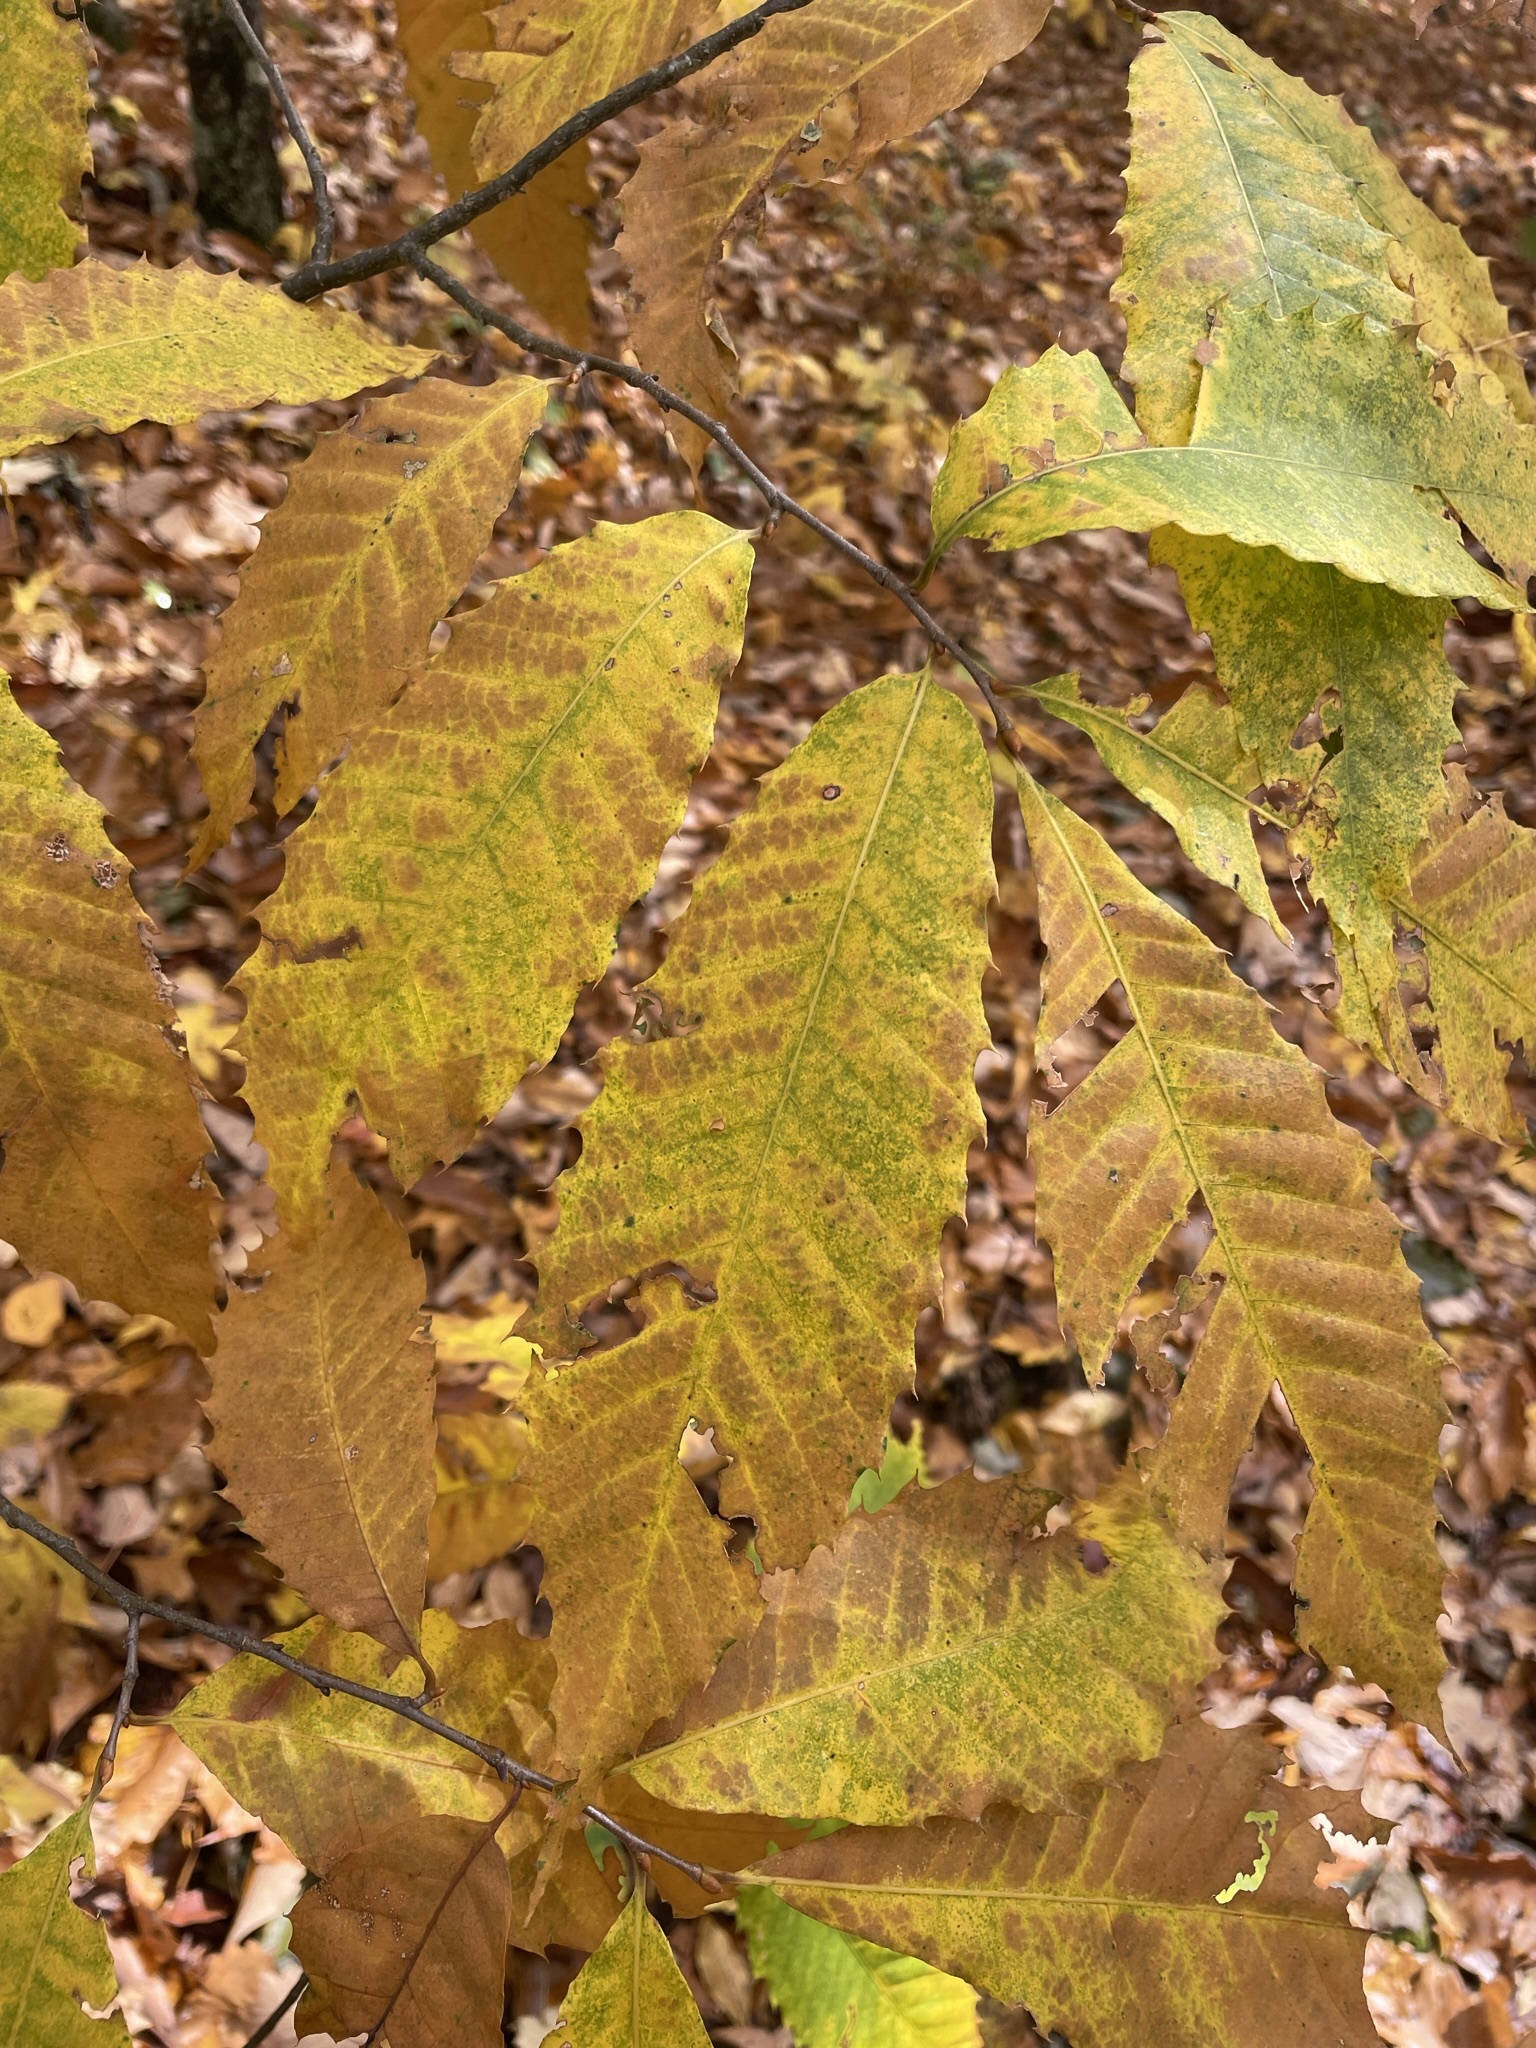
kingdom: Plantae
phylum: Tracheophyta
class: Magnoliopsida
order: Fagales
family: Fagaceae
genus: Castanea
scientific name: Castanea dentata
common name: American chestnut
